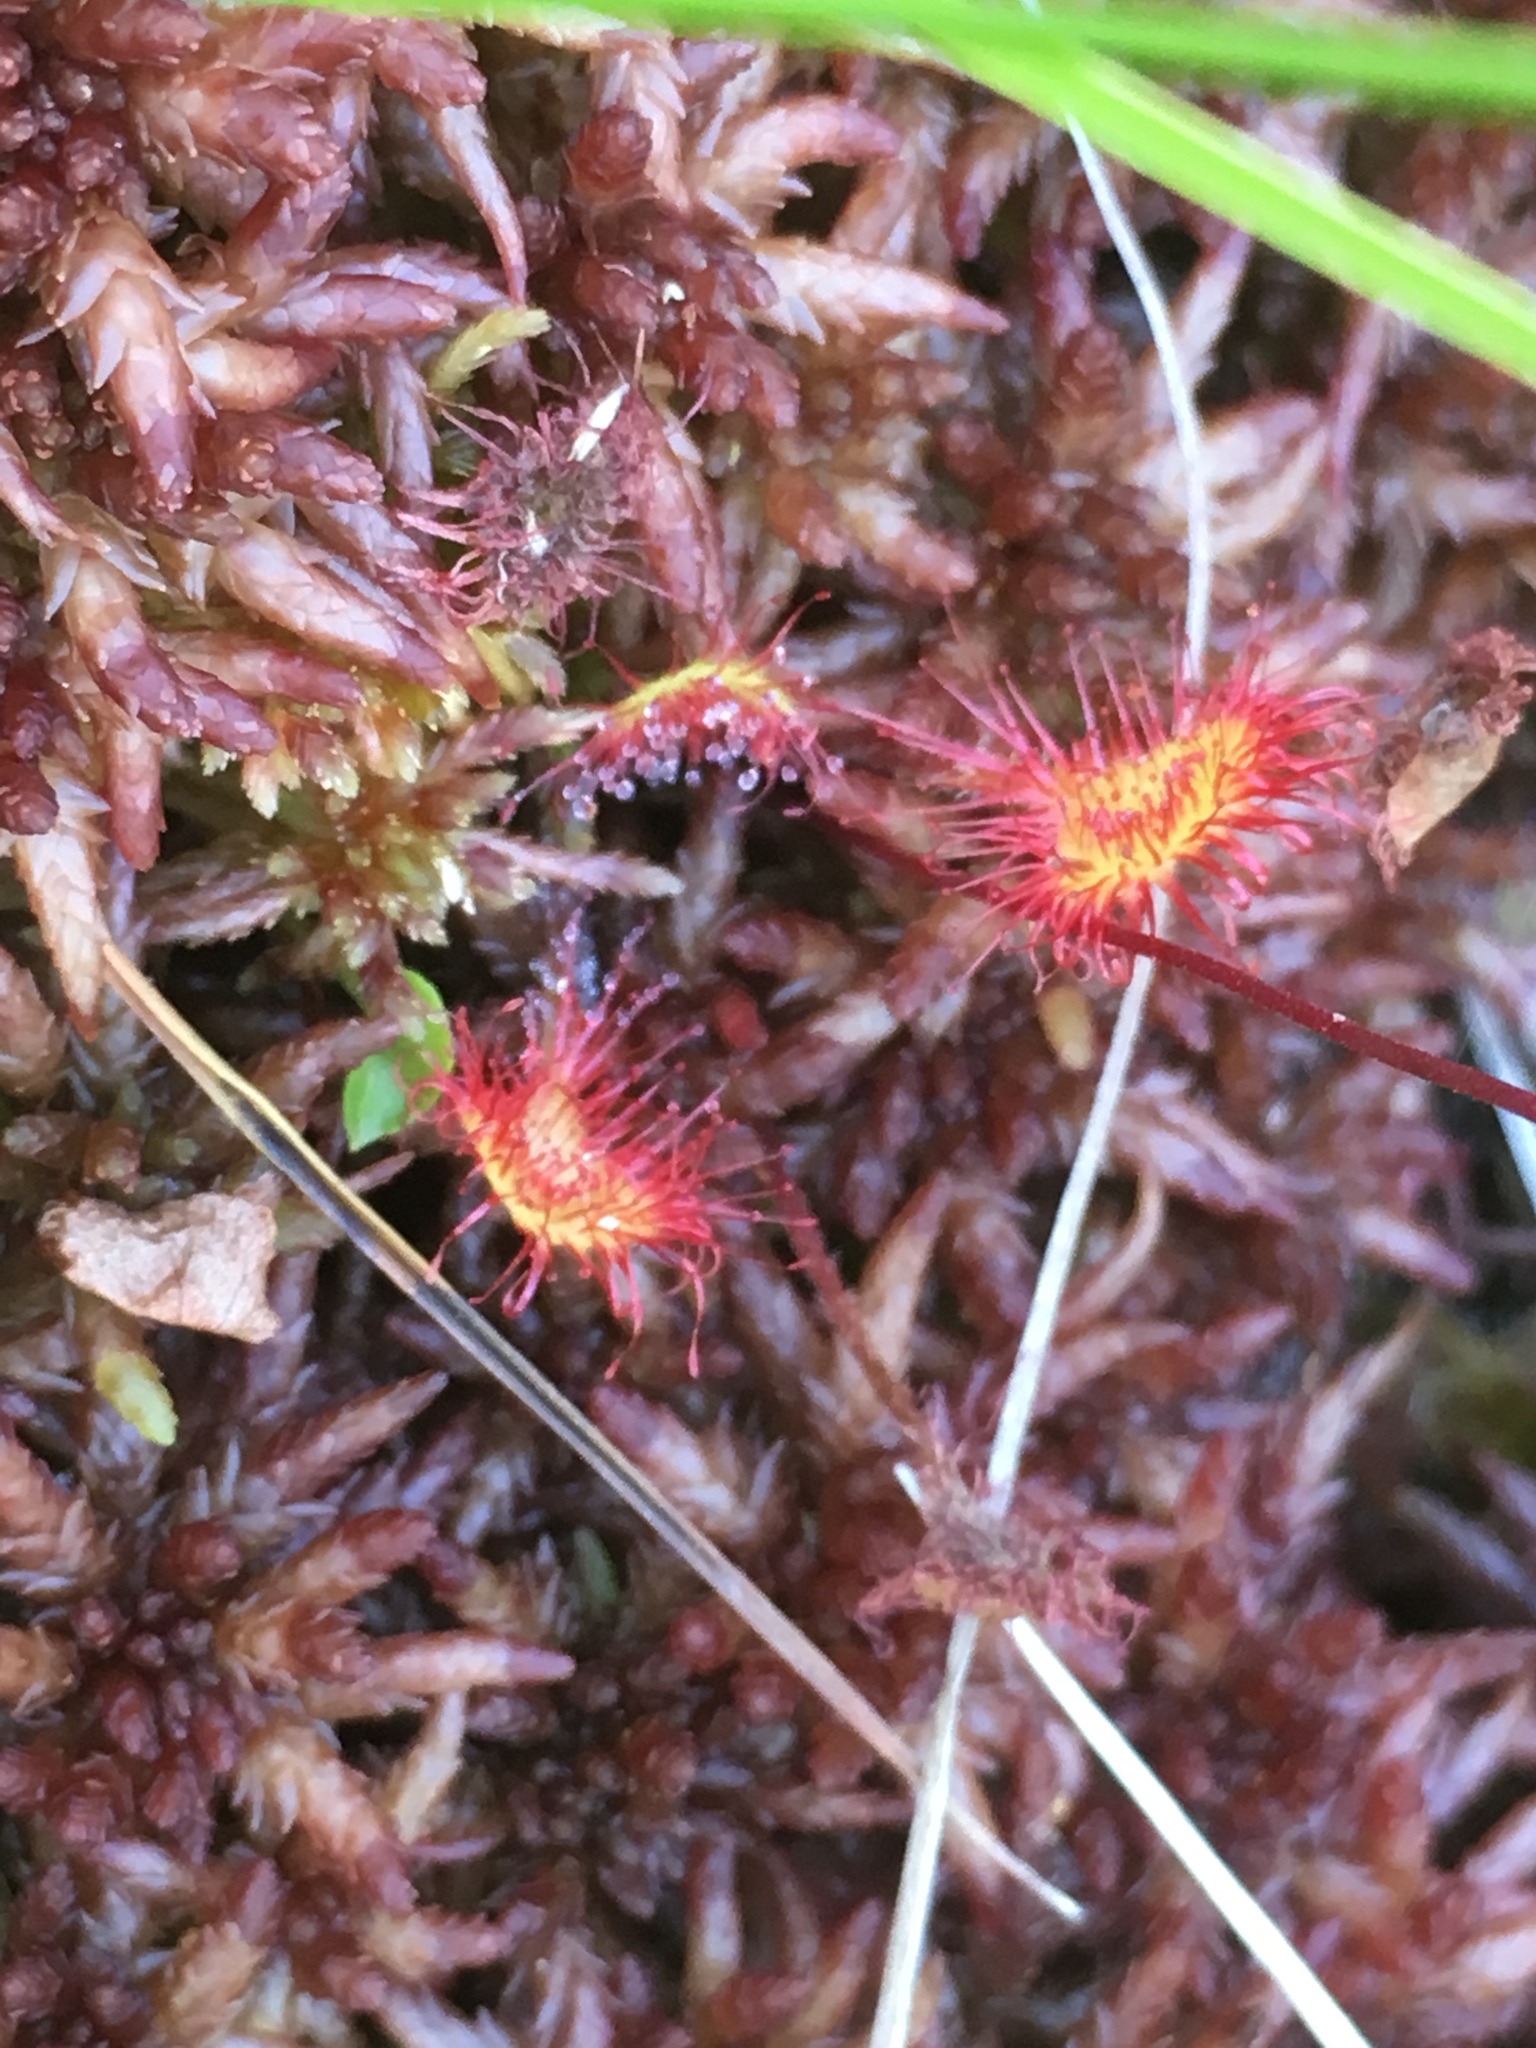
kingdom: Plantae
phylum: Tracheophyta
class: Magnoliopsida
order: Caryophyllales
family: Droseraceae
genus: Drosera
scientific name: Drosera rotundifolia
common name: Round-leaved sundew
